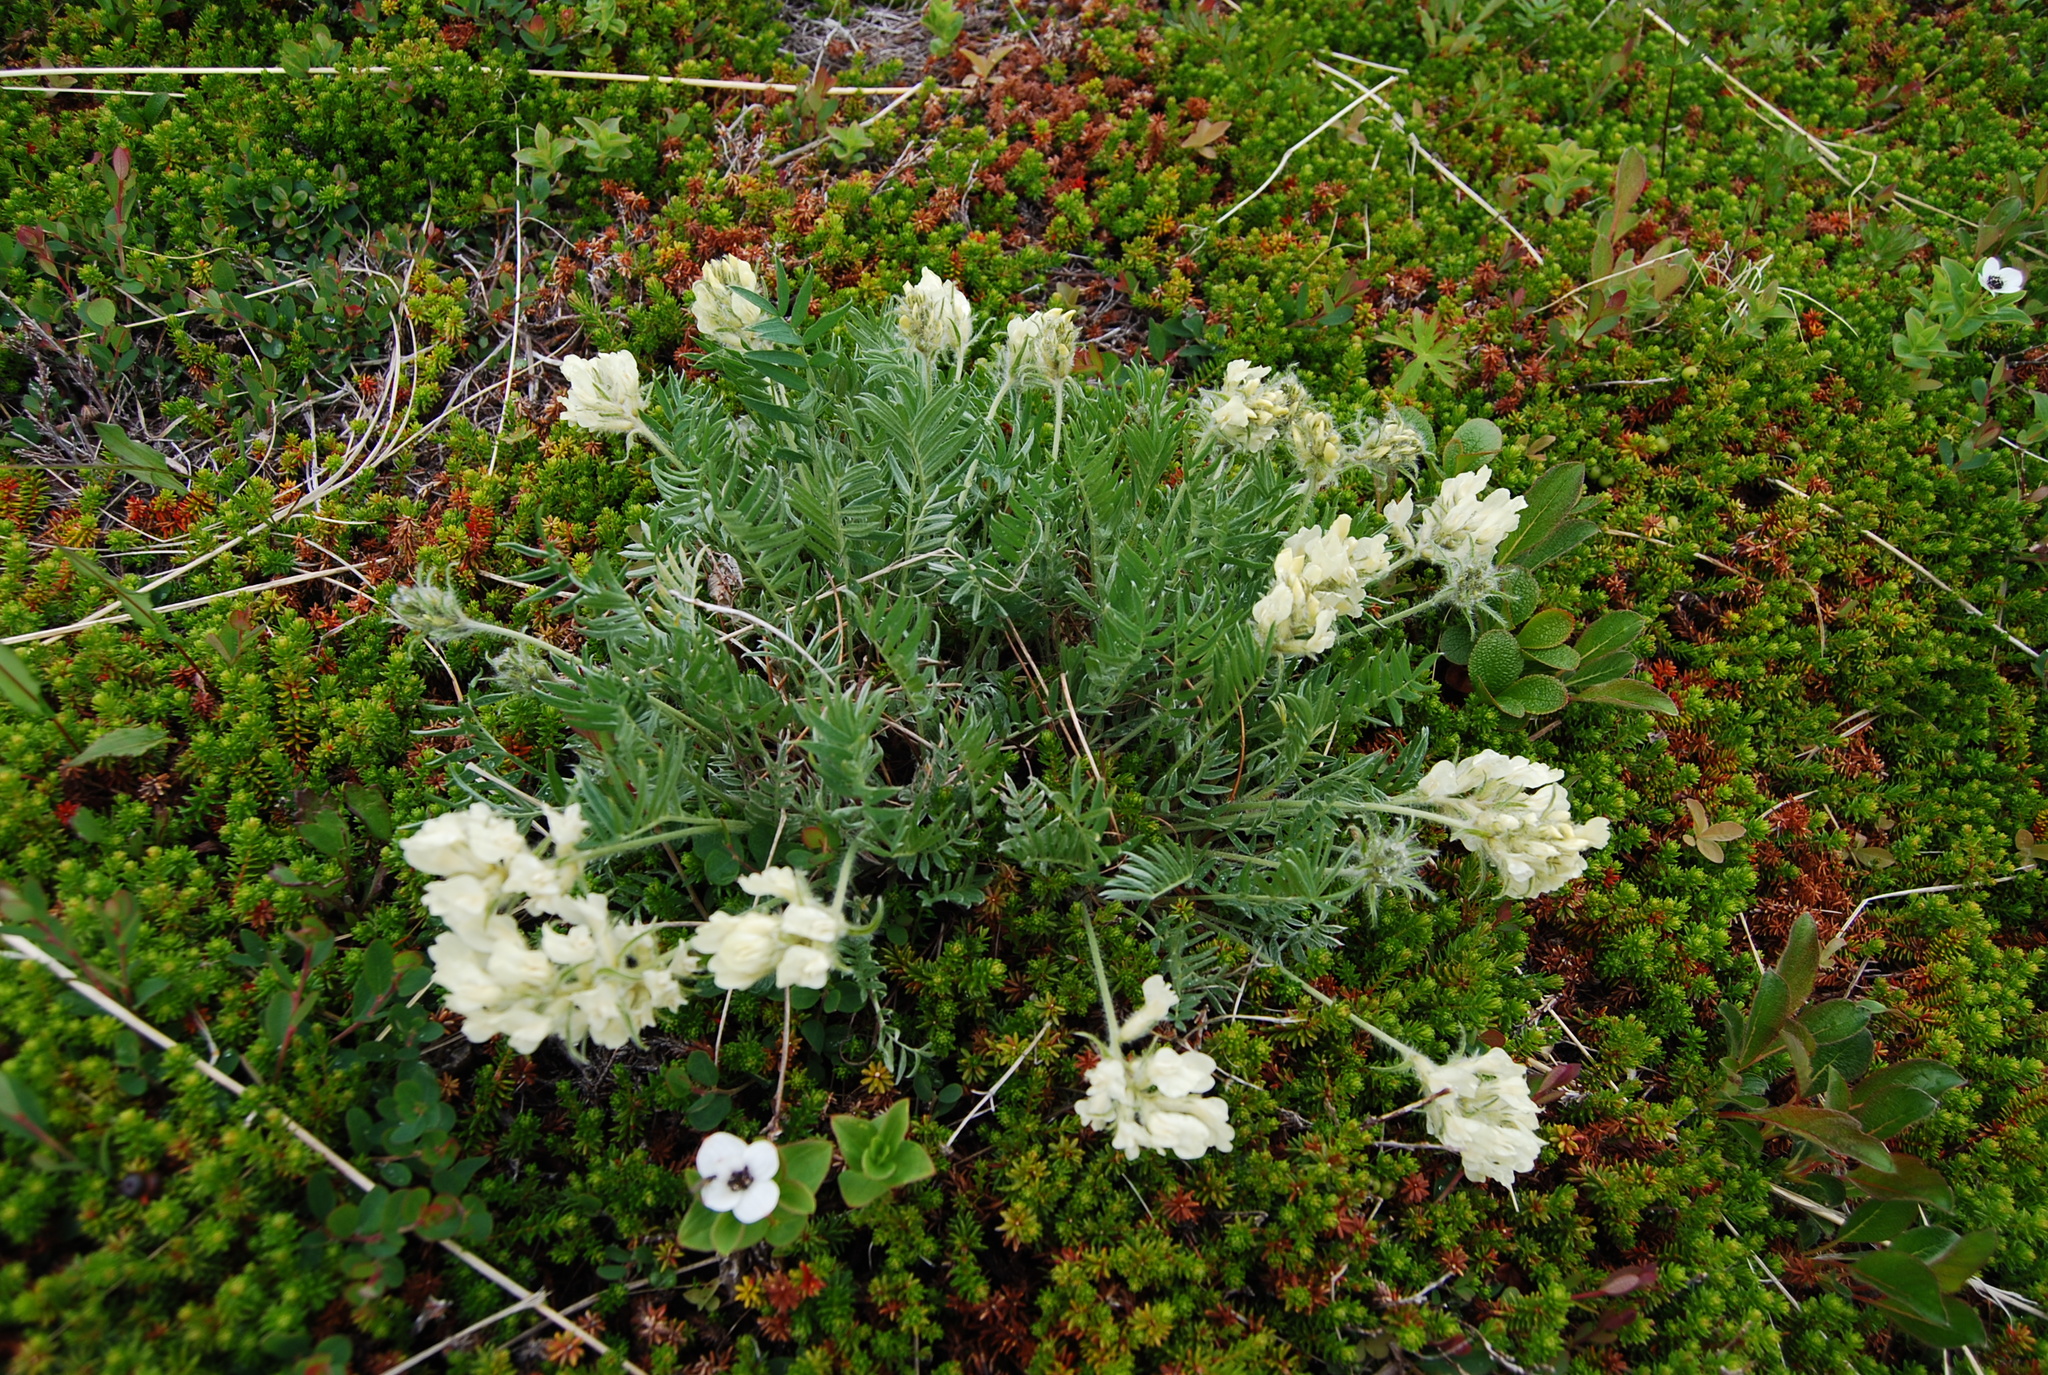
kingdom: Plantae
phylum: Tracheophyta
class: Magnoliopsida
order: Fabales
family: Fabaceae
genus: Oxytropis
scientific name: Oxytropis evenorum
